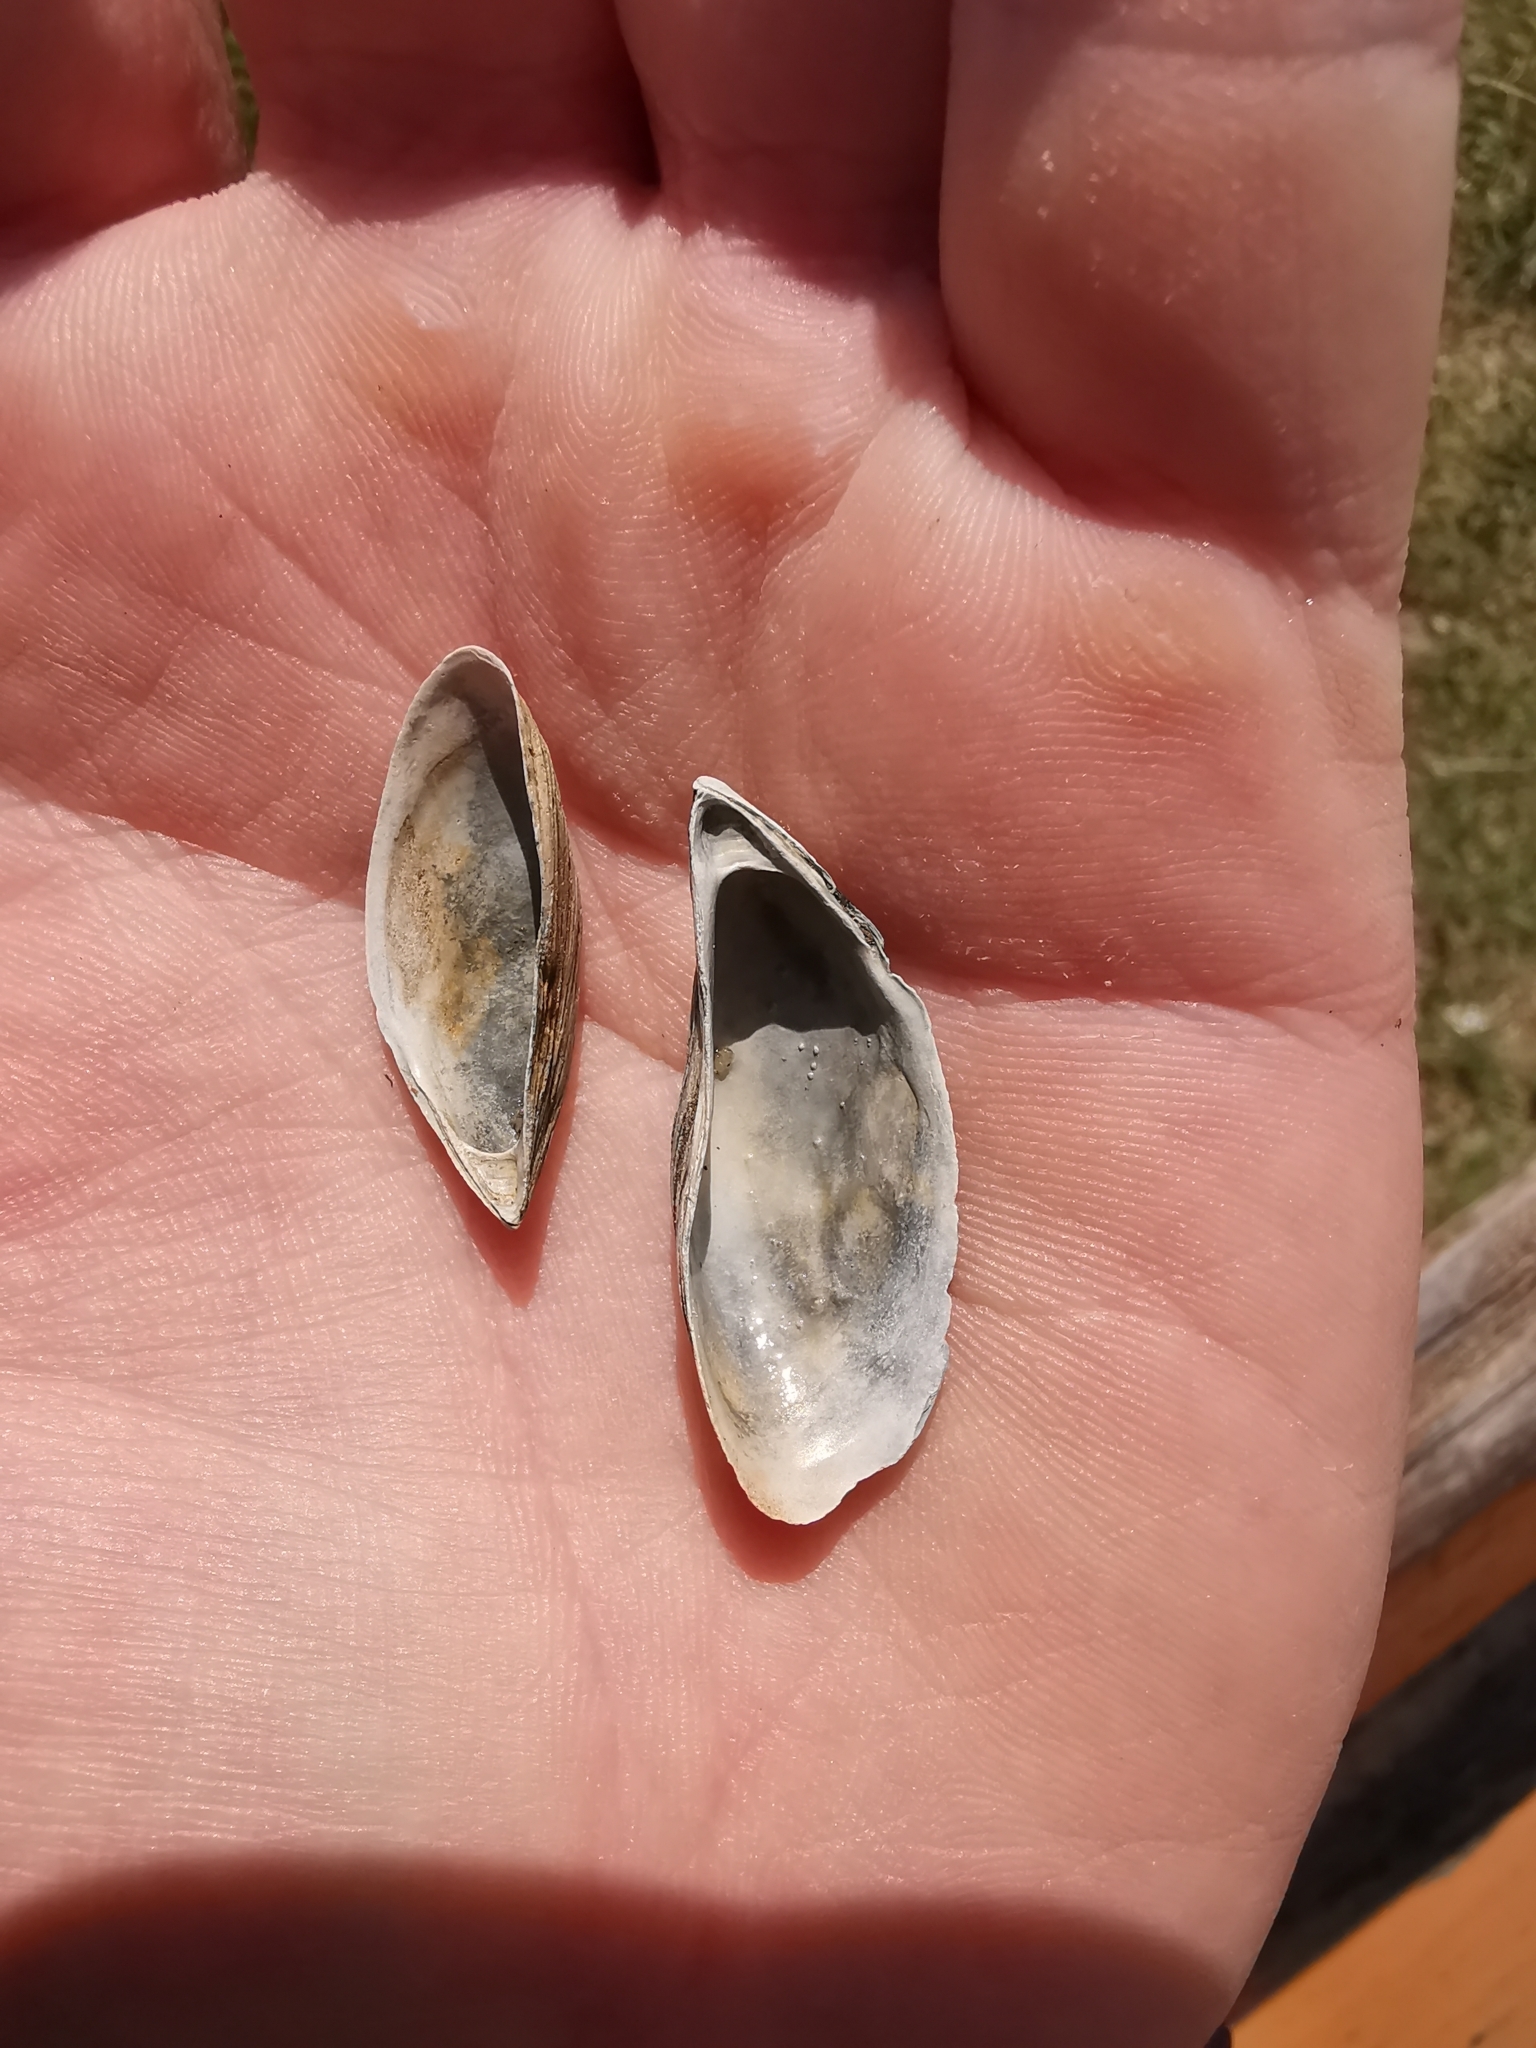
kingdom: Animalia
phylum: Mollusca
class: Bivalvia
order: Myida
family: Dreissenidae
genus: Dreissena
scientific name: Dreissena polymorpha
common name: Zebra mussel
